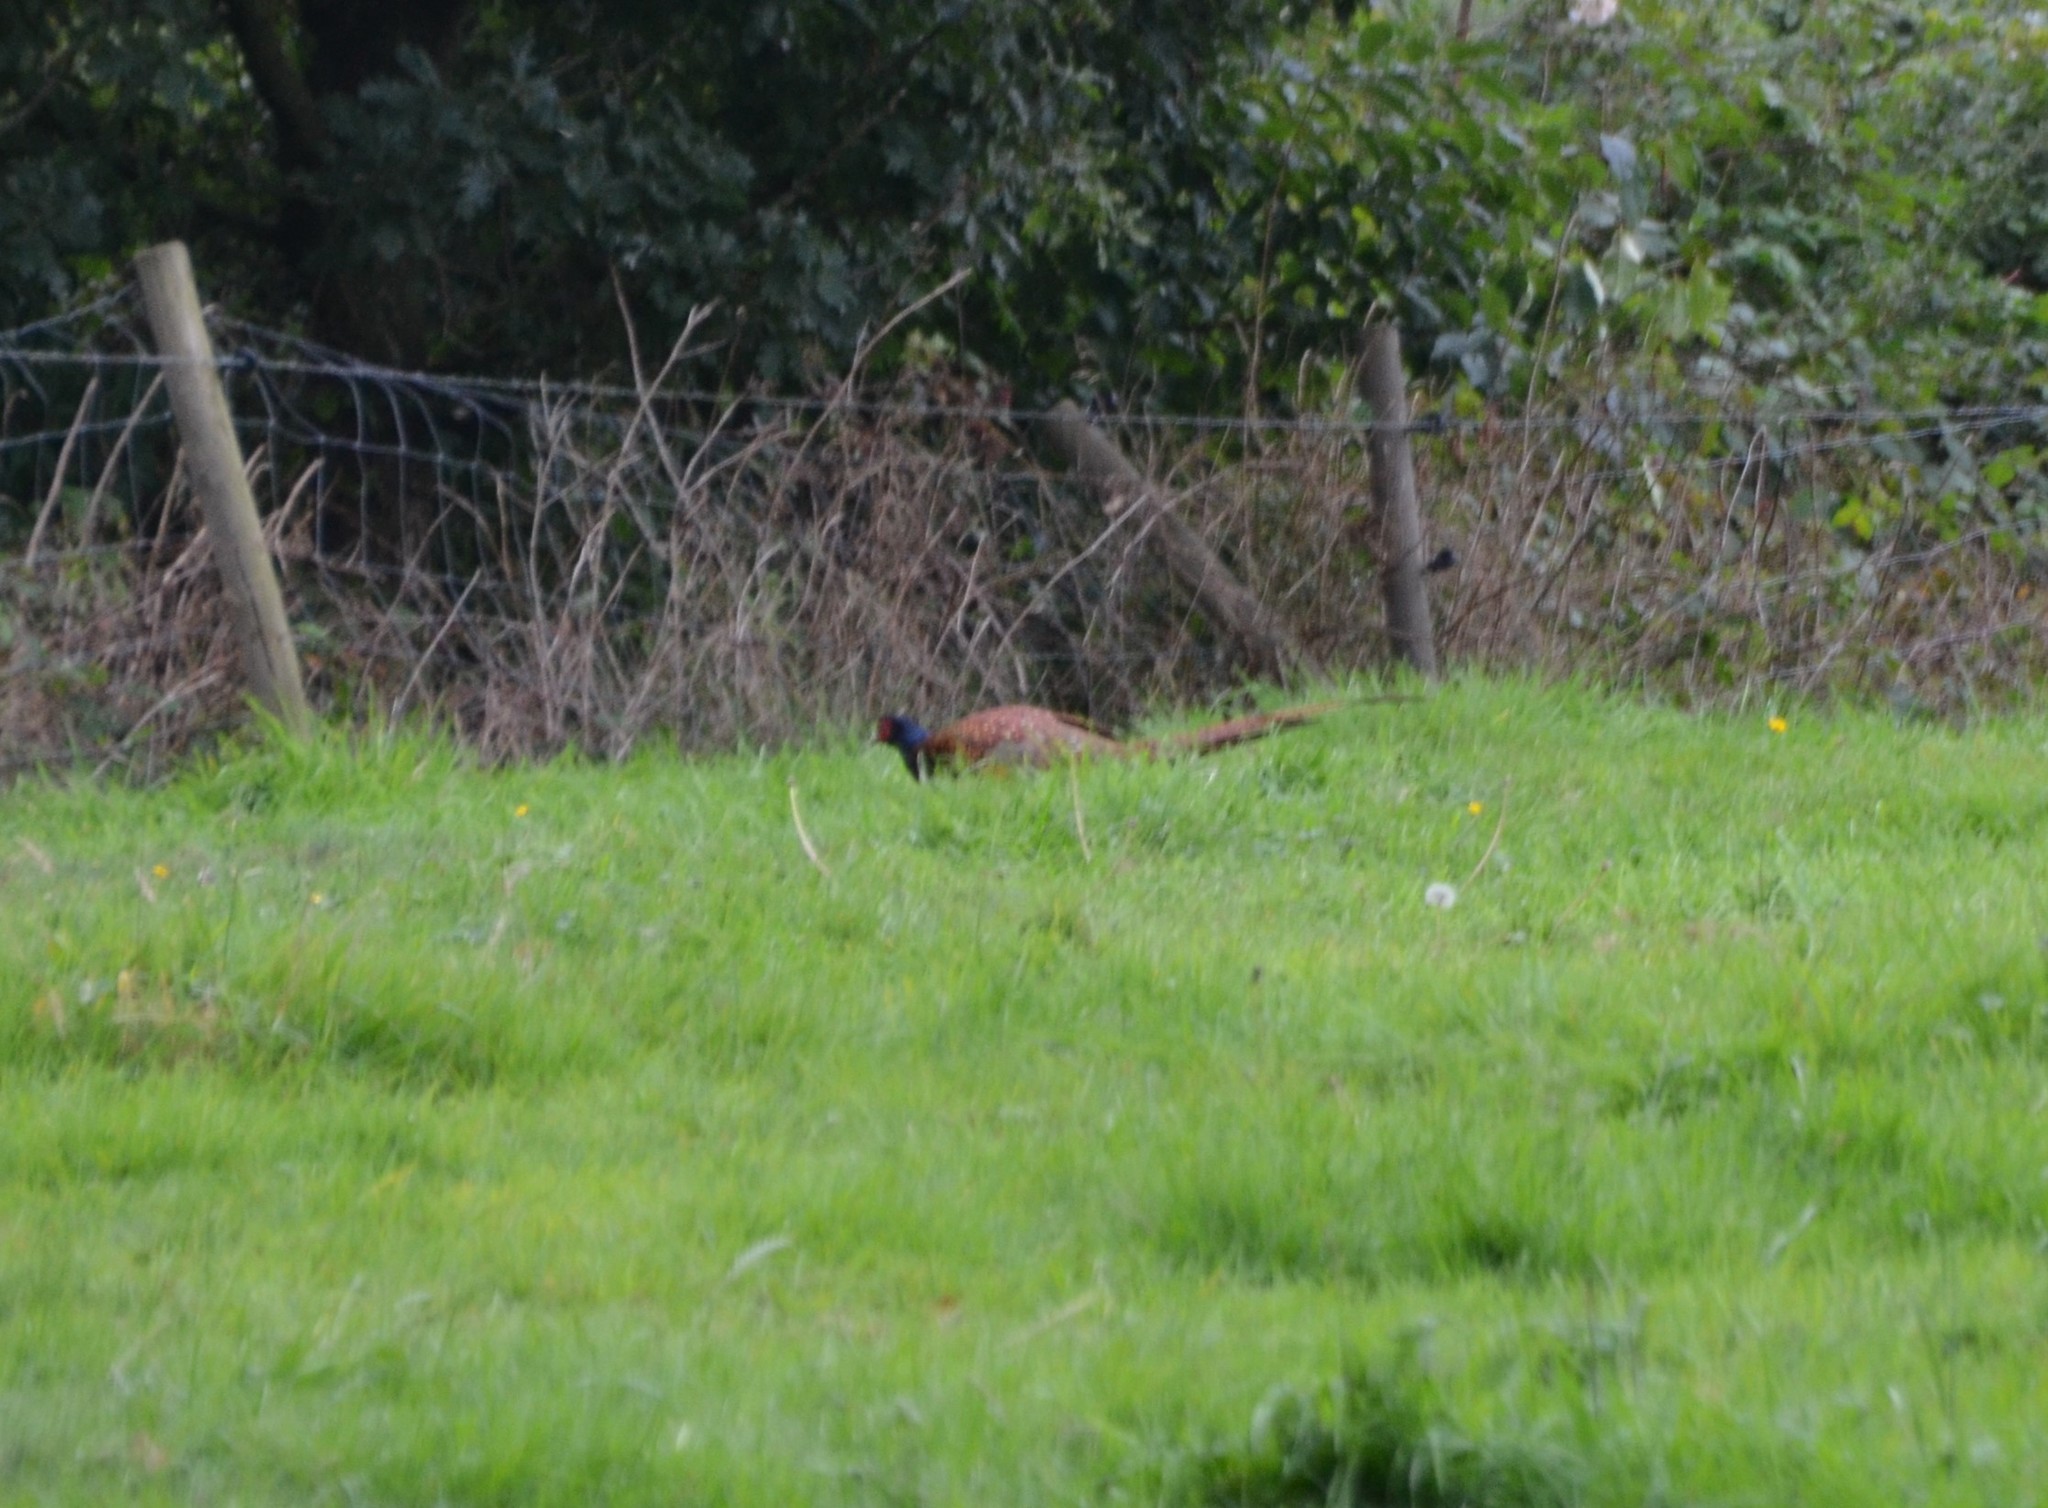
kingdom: Animalia
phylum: Chordata
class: Aves
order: Galliformes
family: Phasianidae
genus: Phasianus
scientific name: Phasianus colchicus
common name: Common pheasant
